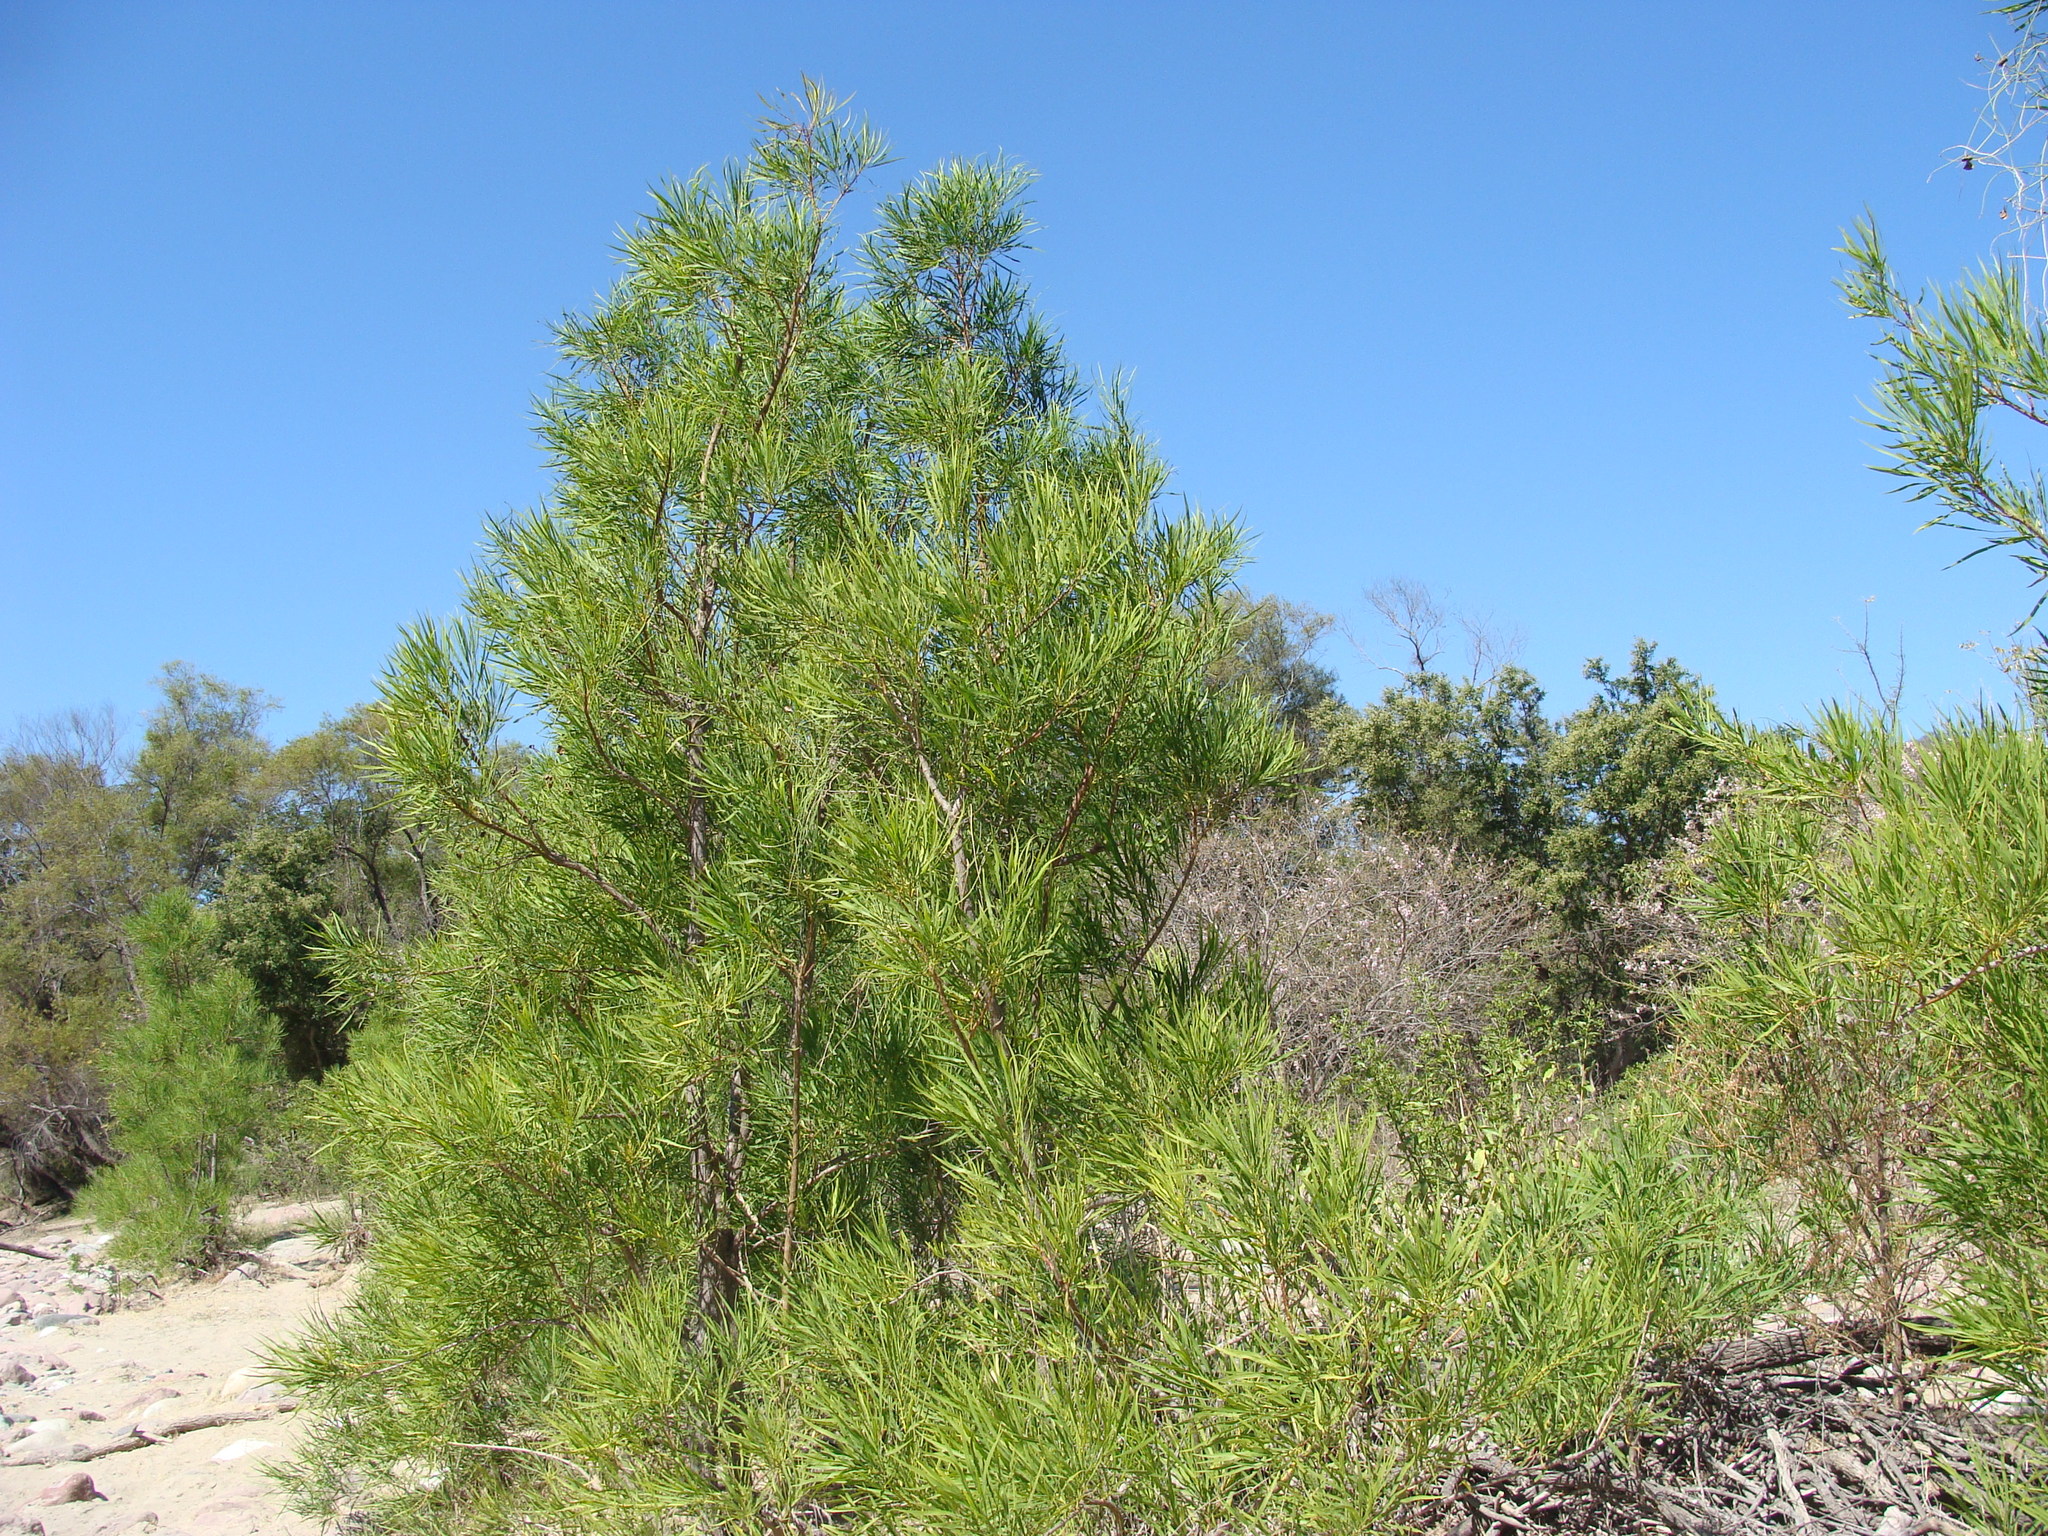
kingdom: Plantae
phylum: Tracheophyta
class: Magnoliopsida
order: Lamiales
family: Bignoniaceae
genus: Astianthus
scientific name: Astianthus viminalis
